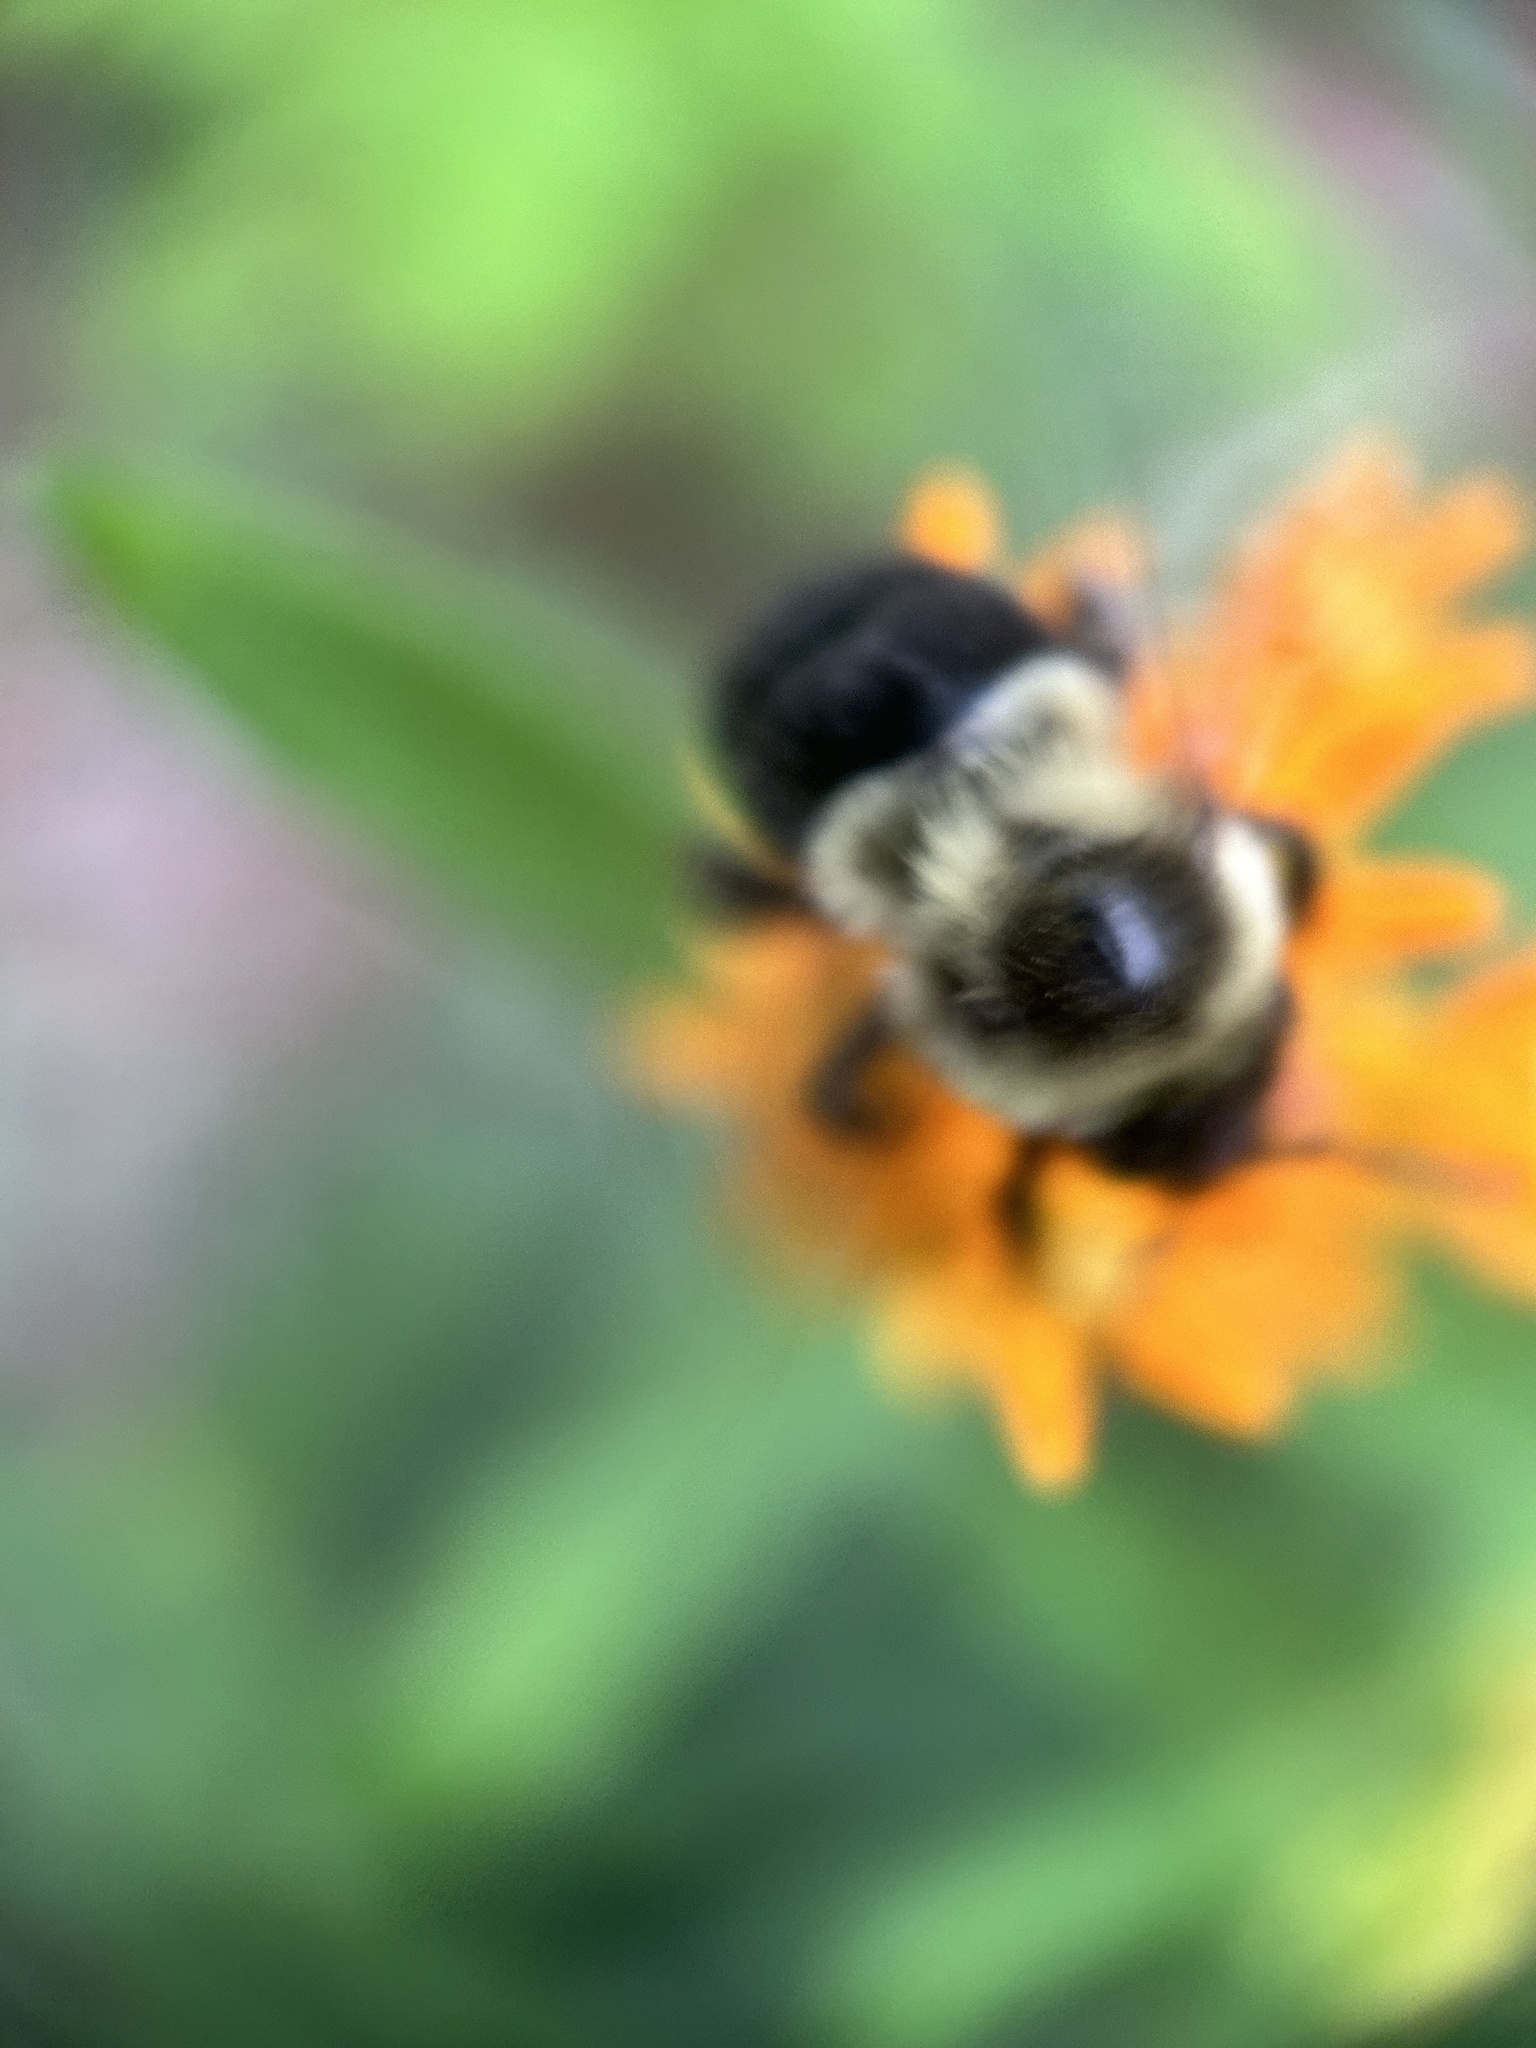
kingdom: Animalia
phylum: Arthropoda
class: Insecta
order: Hymenoptera
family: Apidae
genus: Bombus
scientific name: Bombus impatiens
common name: Common eastern bumble bee
